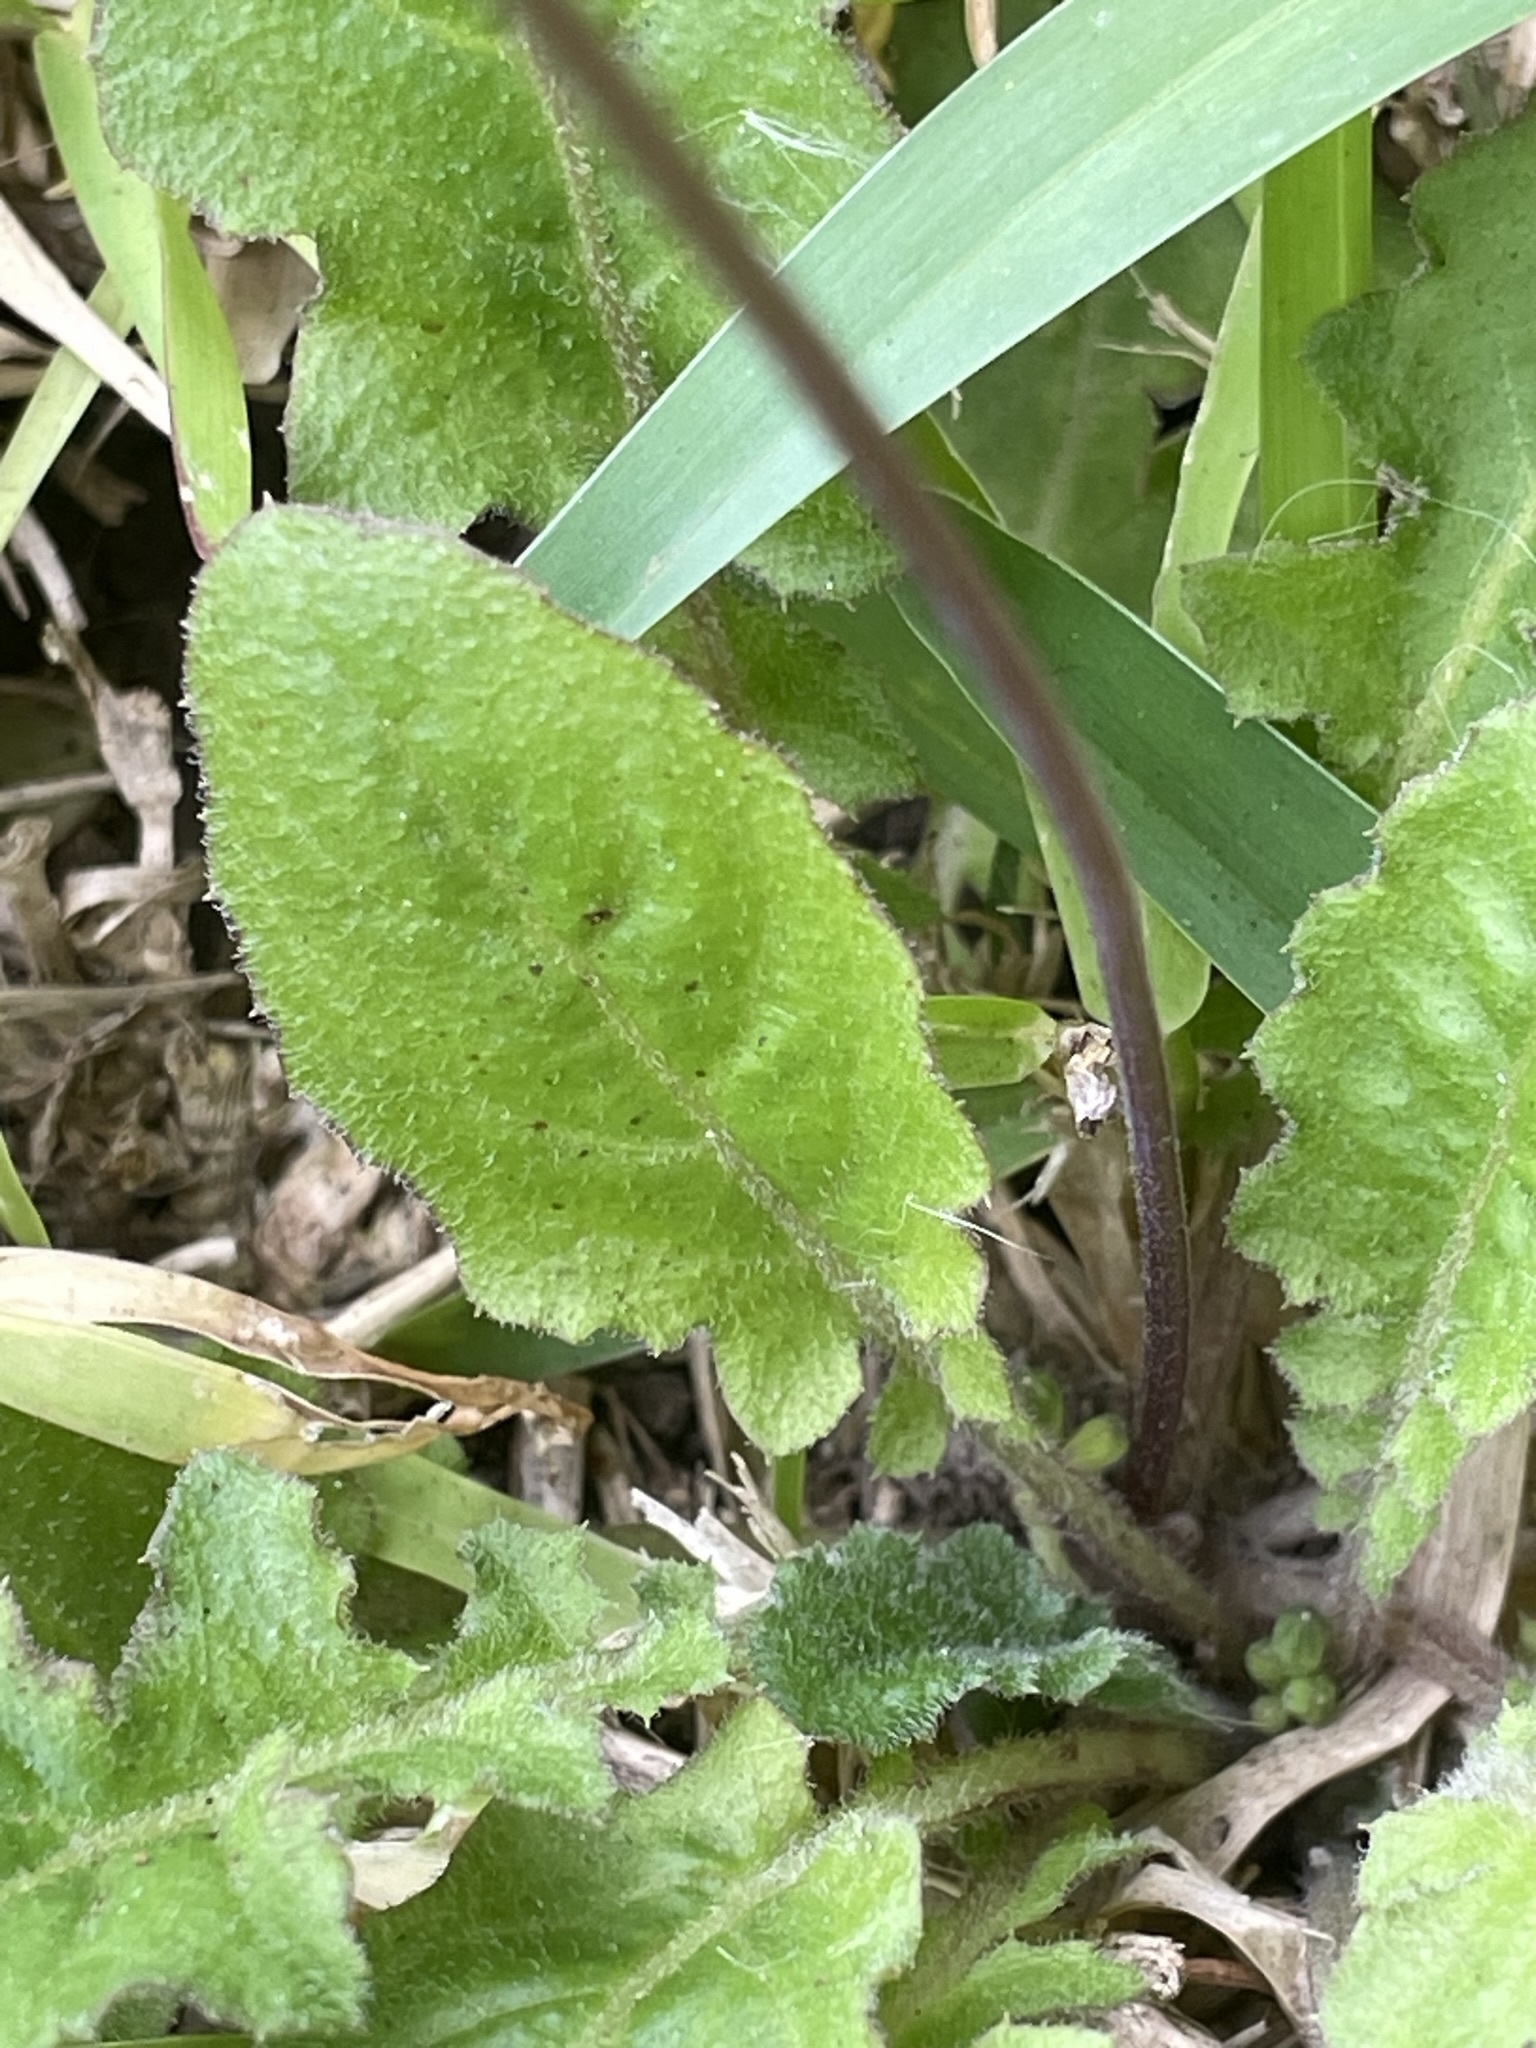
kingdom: Plantae
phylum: Tracheophyta
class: Magnoliopsida
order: Asterales
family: Asteraceae
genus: Youngia
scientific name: Youngia japonica
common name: Oriental false hawksbeard
